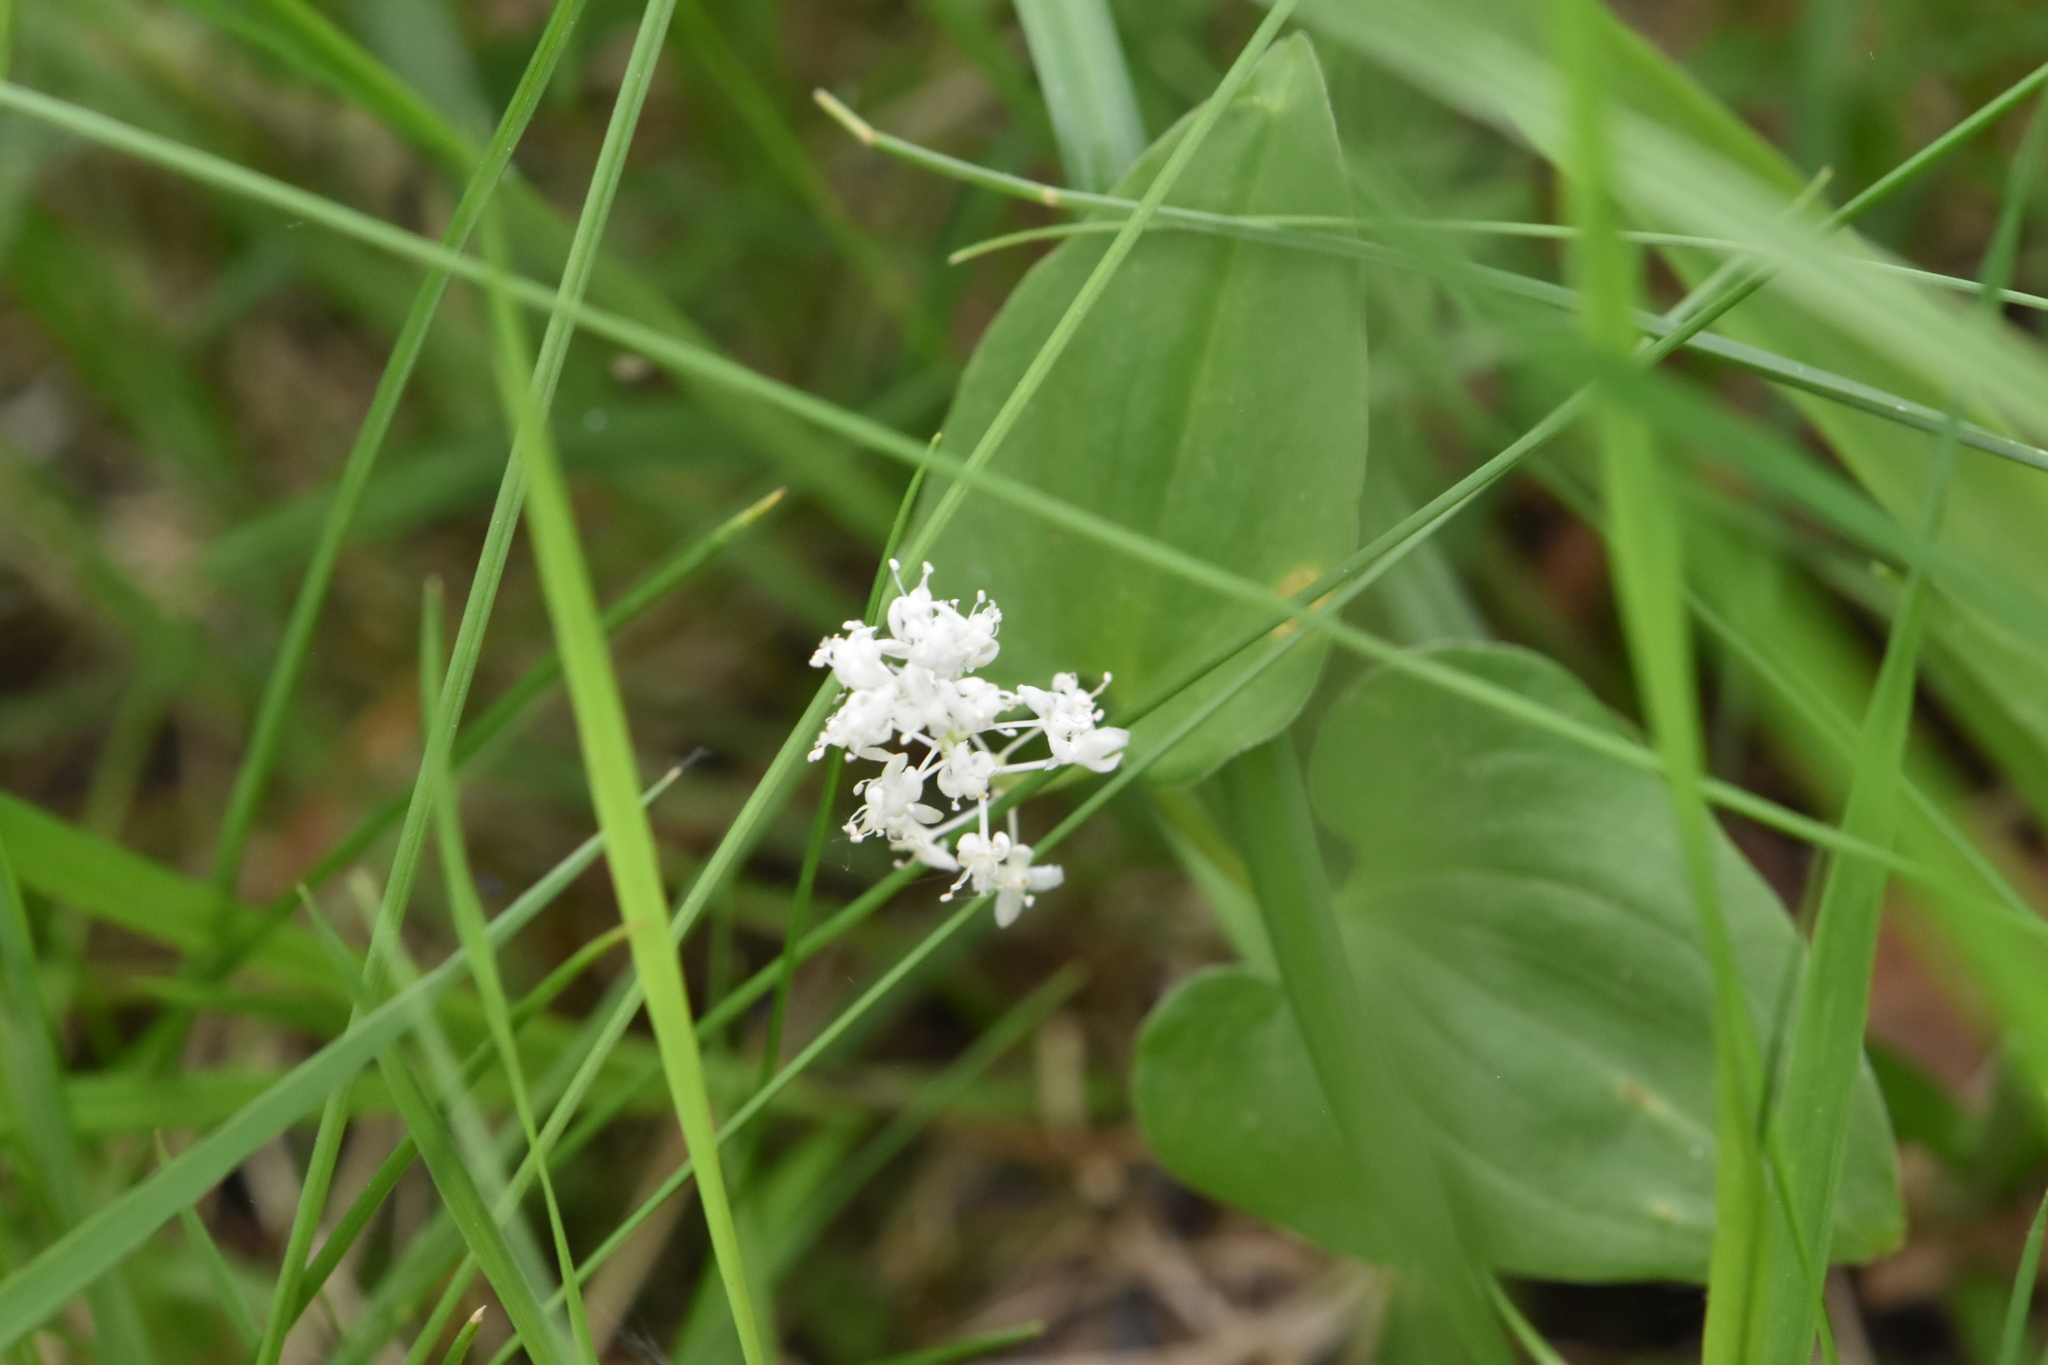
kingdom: Plantae
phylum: Tracheophyta
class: Liliopsida
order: Asparagales
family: Asparagaceae
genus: Maianthemum
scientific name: Maianthemum bifolium
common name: May lily
